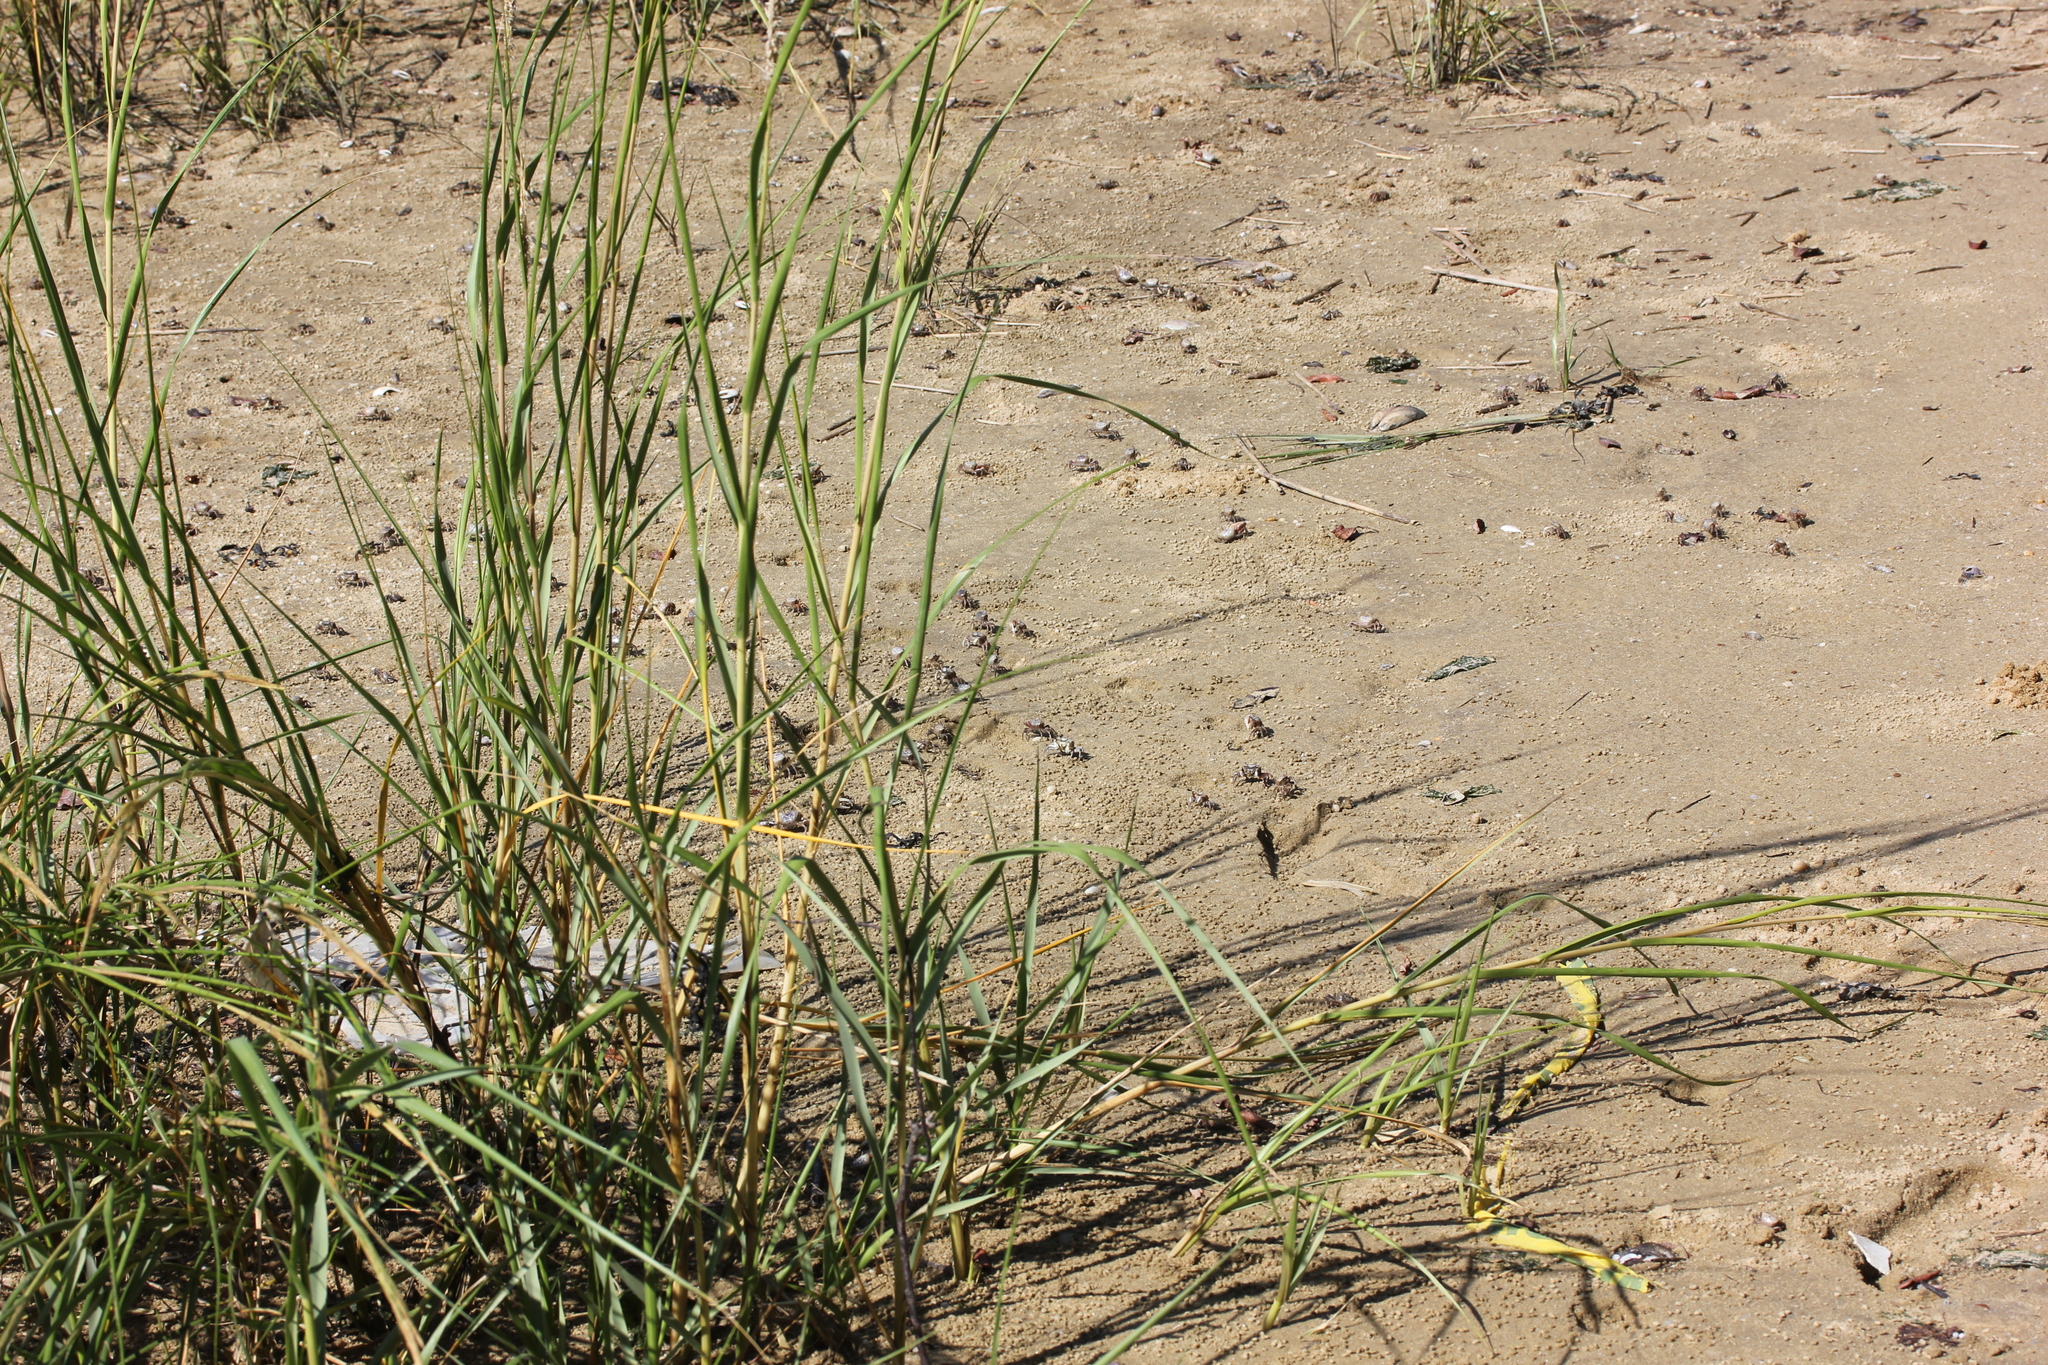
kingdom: Animalia
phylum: Arthropoda
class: Malacostraca
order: Decapoda
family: Ocypodidae
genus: Leptuca
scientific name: Leptuca pugilator
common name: Atlantic sand fiddler crab
